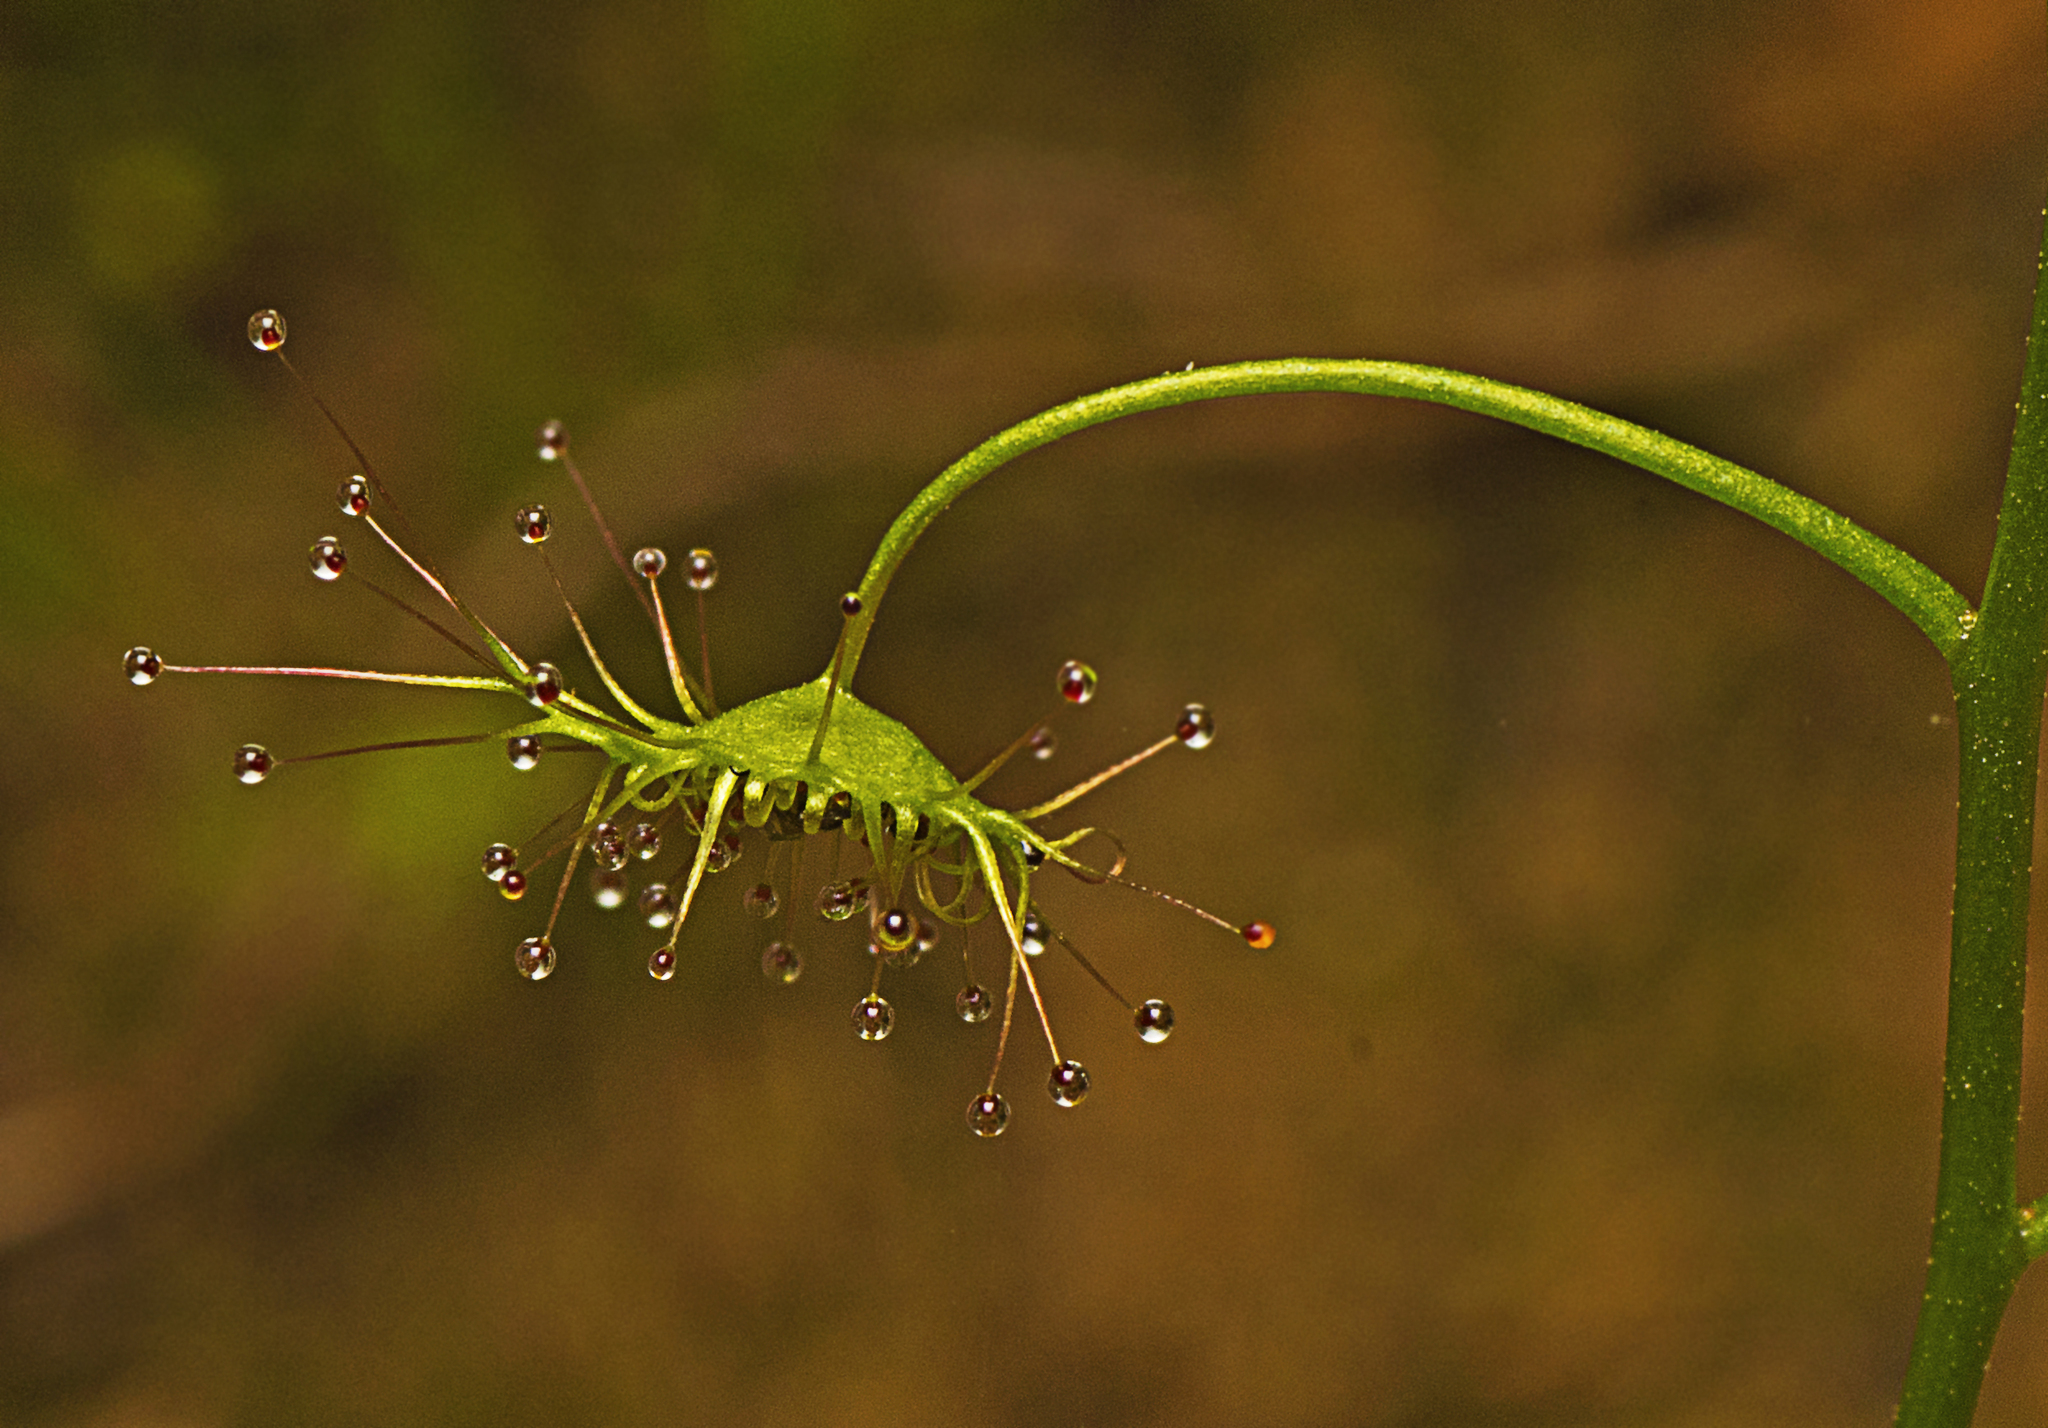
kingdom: Plantae
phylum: Tracheophyta
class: Magnoliopsida
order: Caryophyllales
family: Droseraceae
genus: Drosera
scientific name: Drosera peltata
